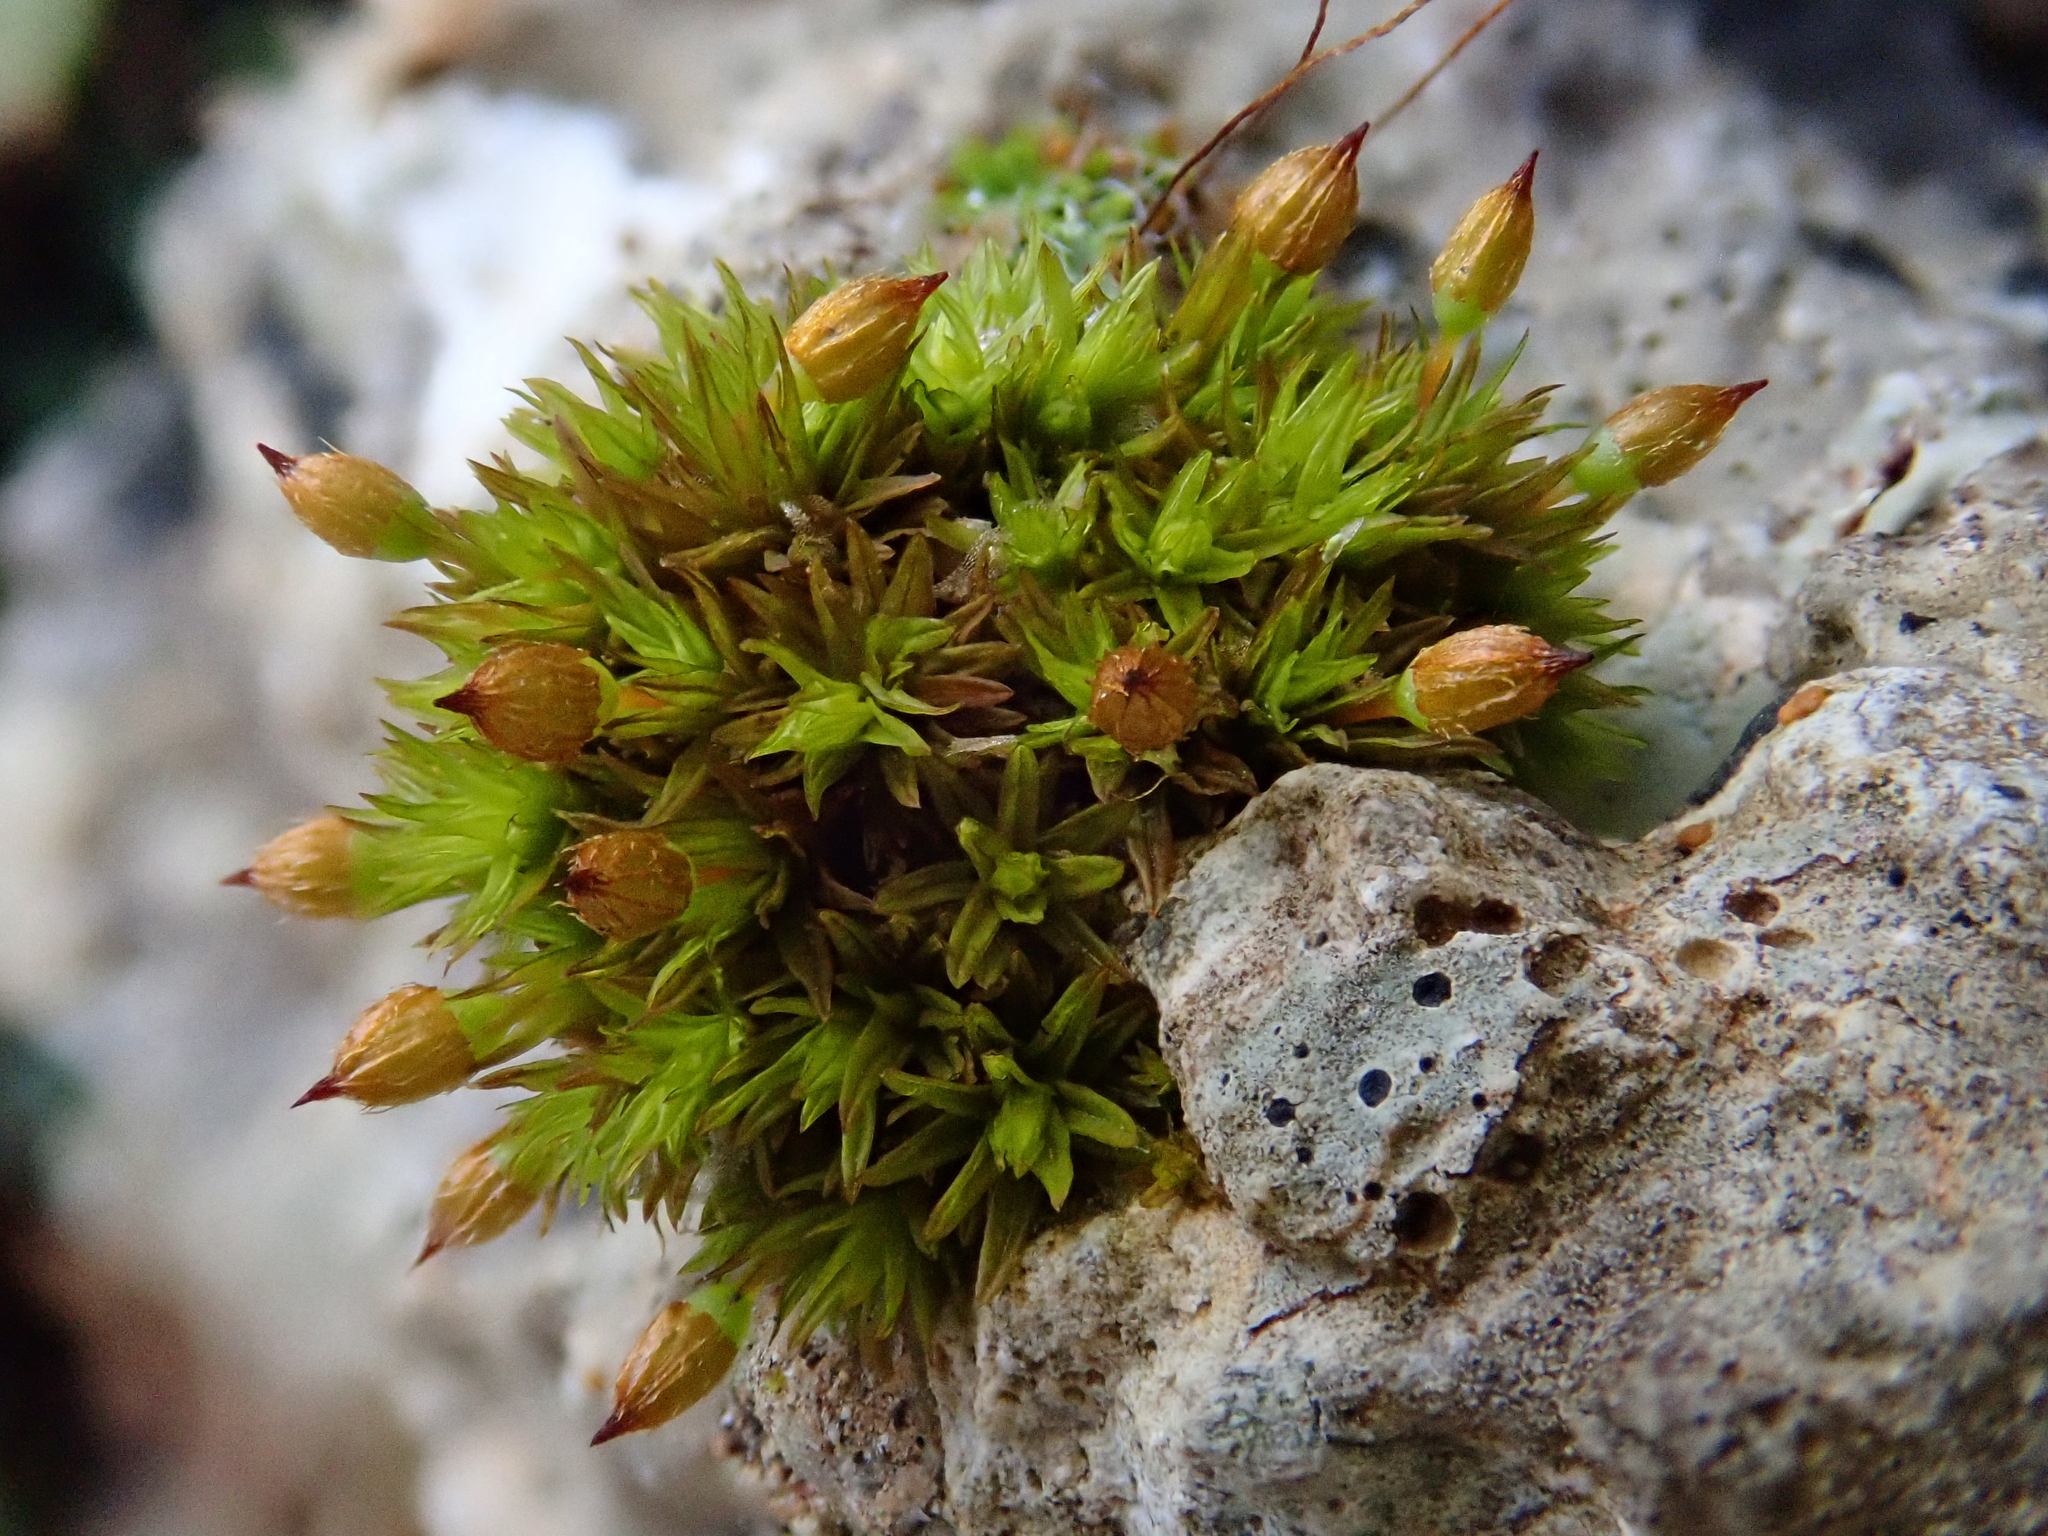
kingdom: Plantae
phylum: Bryophyta
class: Bryopsida
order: Orthotrichales
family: Orthotrichaceae
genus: Orthotrichum
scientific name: Orthotrichum anomalum
